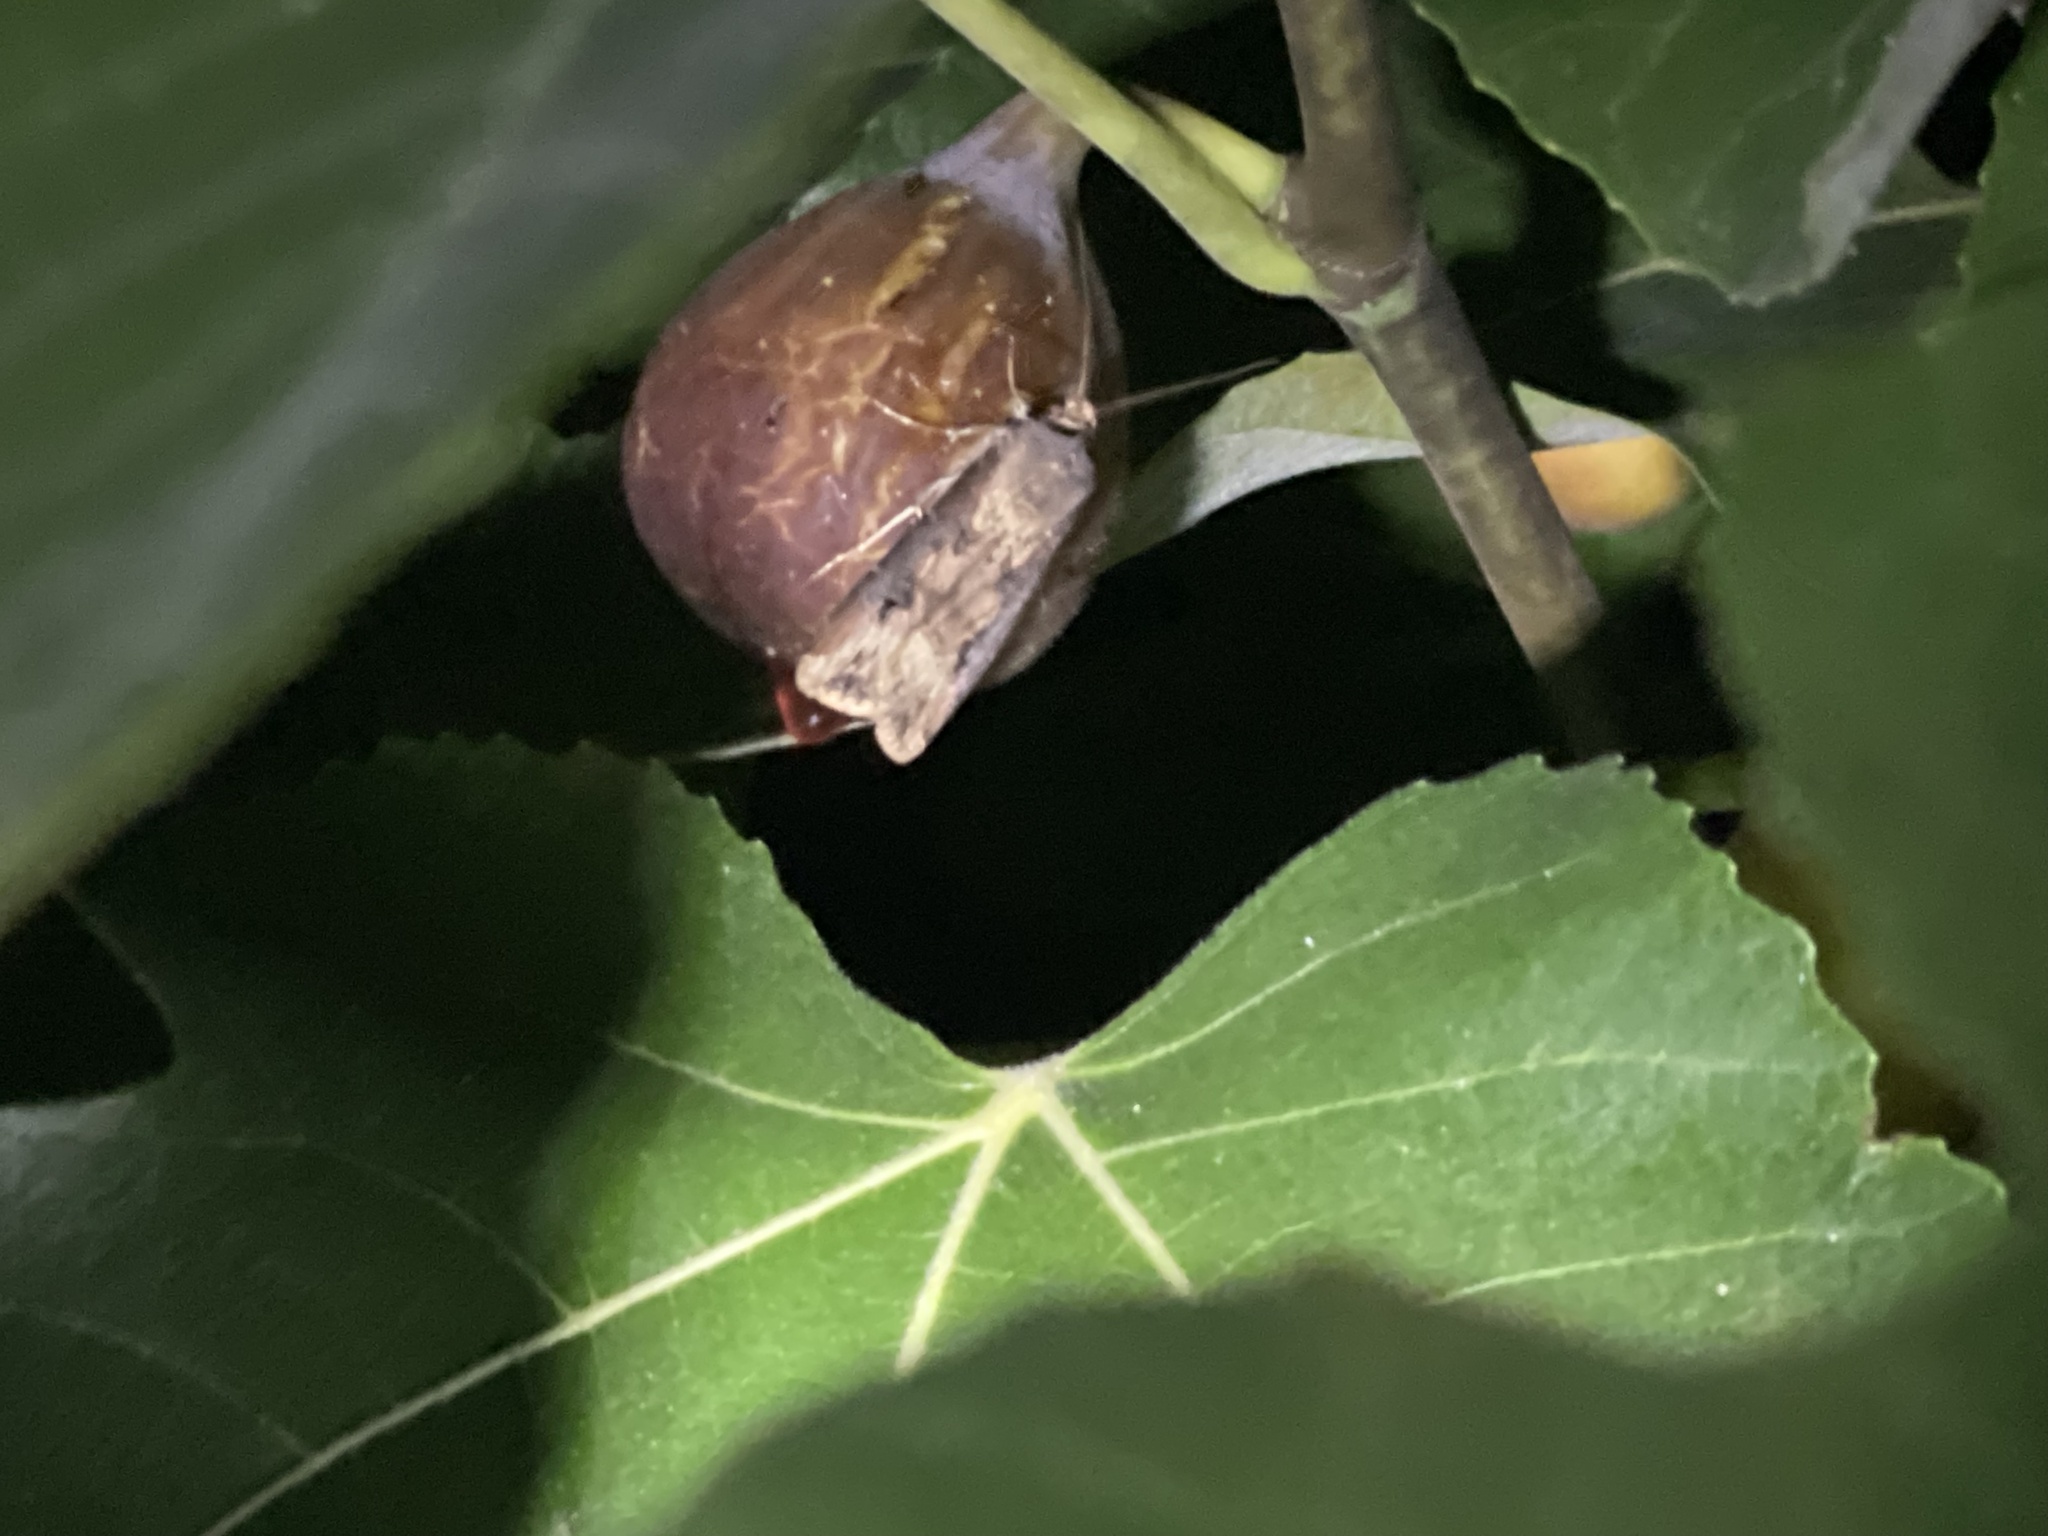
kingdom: Animalia
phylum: Arthropoda
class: Insecta
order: Lepidoptera
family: Noctuidae
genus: Agrotis
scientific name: Agrotis ipsilon
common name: Dark sword-grass
